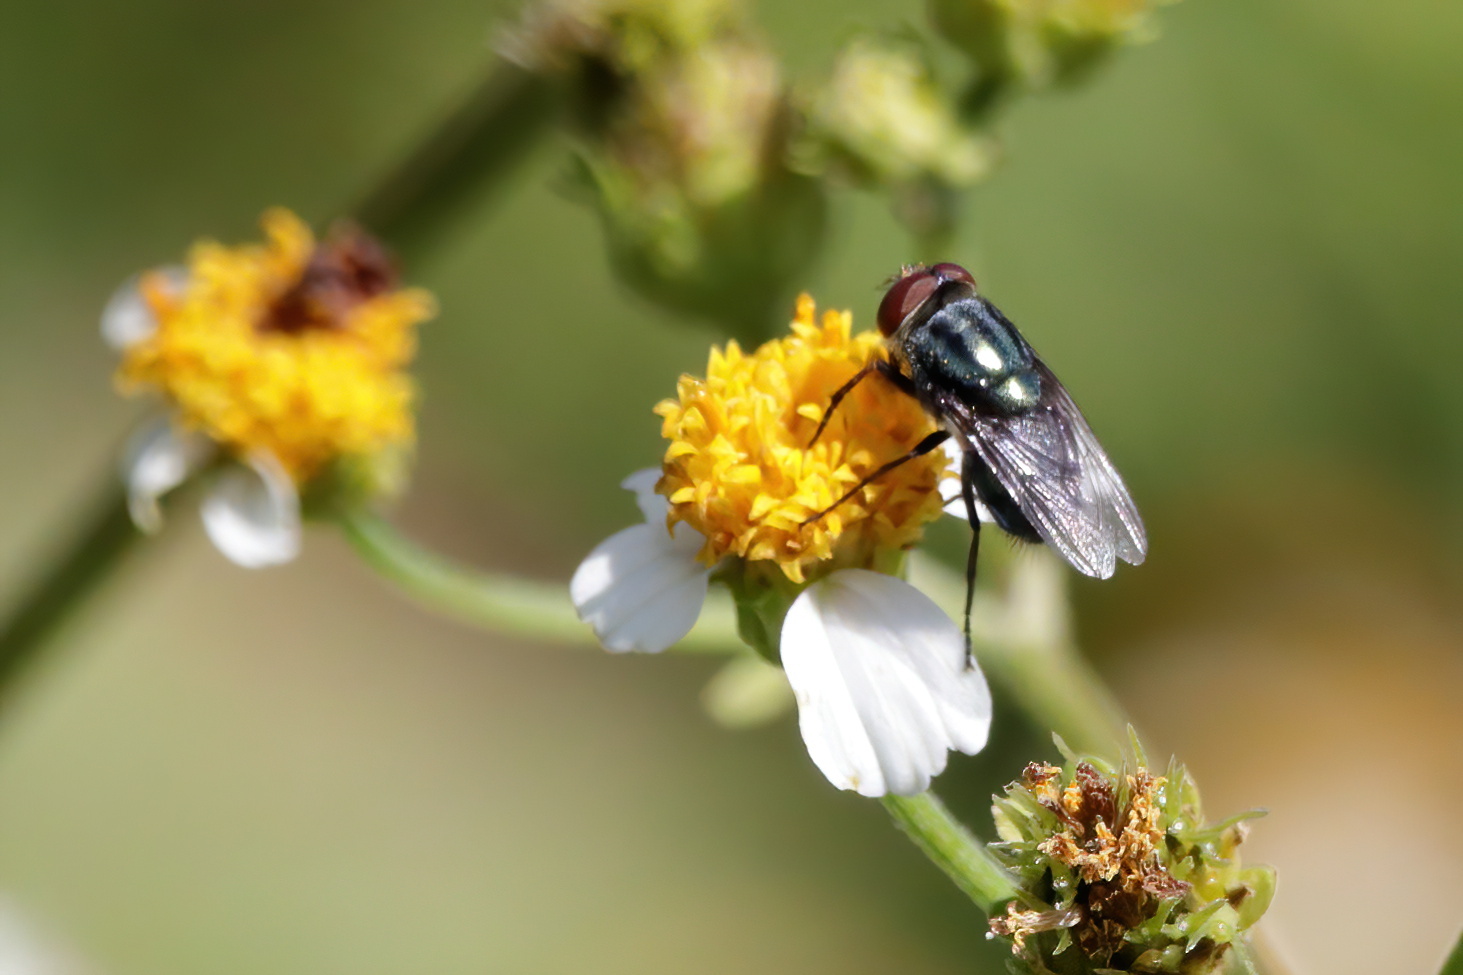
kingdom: Animalia
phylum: Arthropoda
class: Insecta
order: Diptera
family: Calliphoridae
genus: Cochliomyia
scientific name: Cochliomyia macellaria
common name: Secondary screwworm
